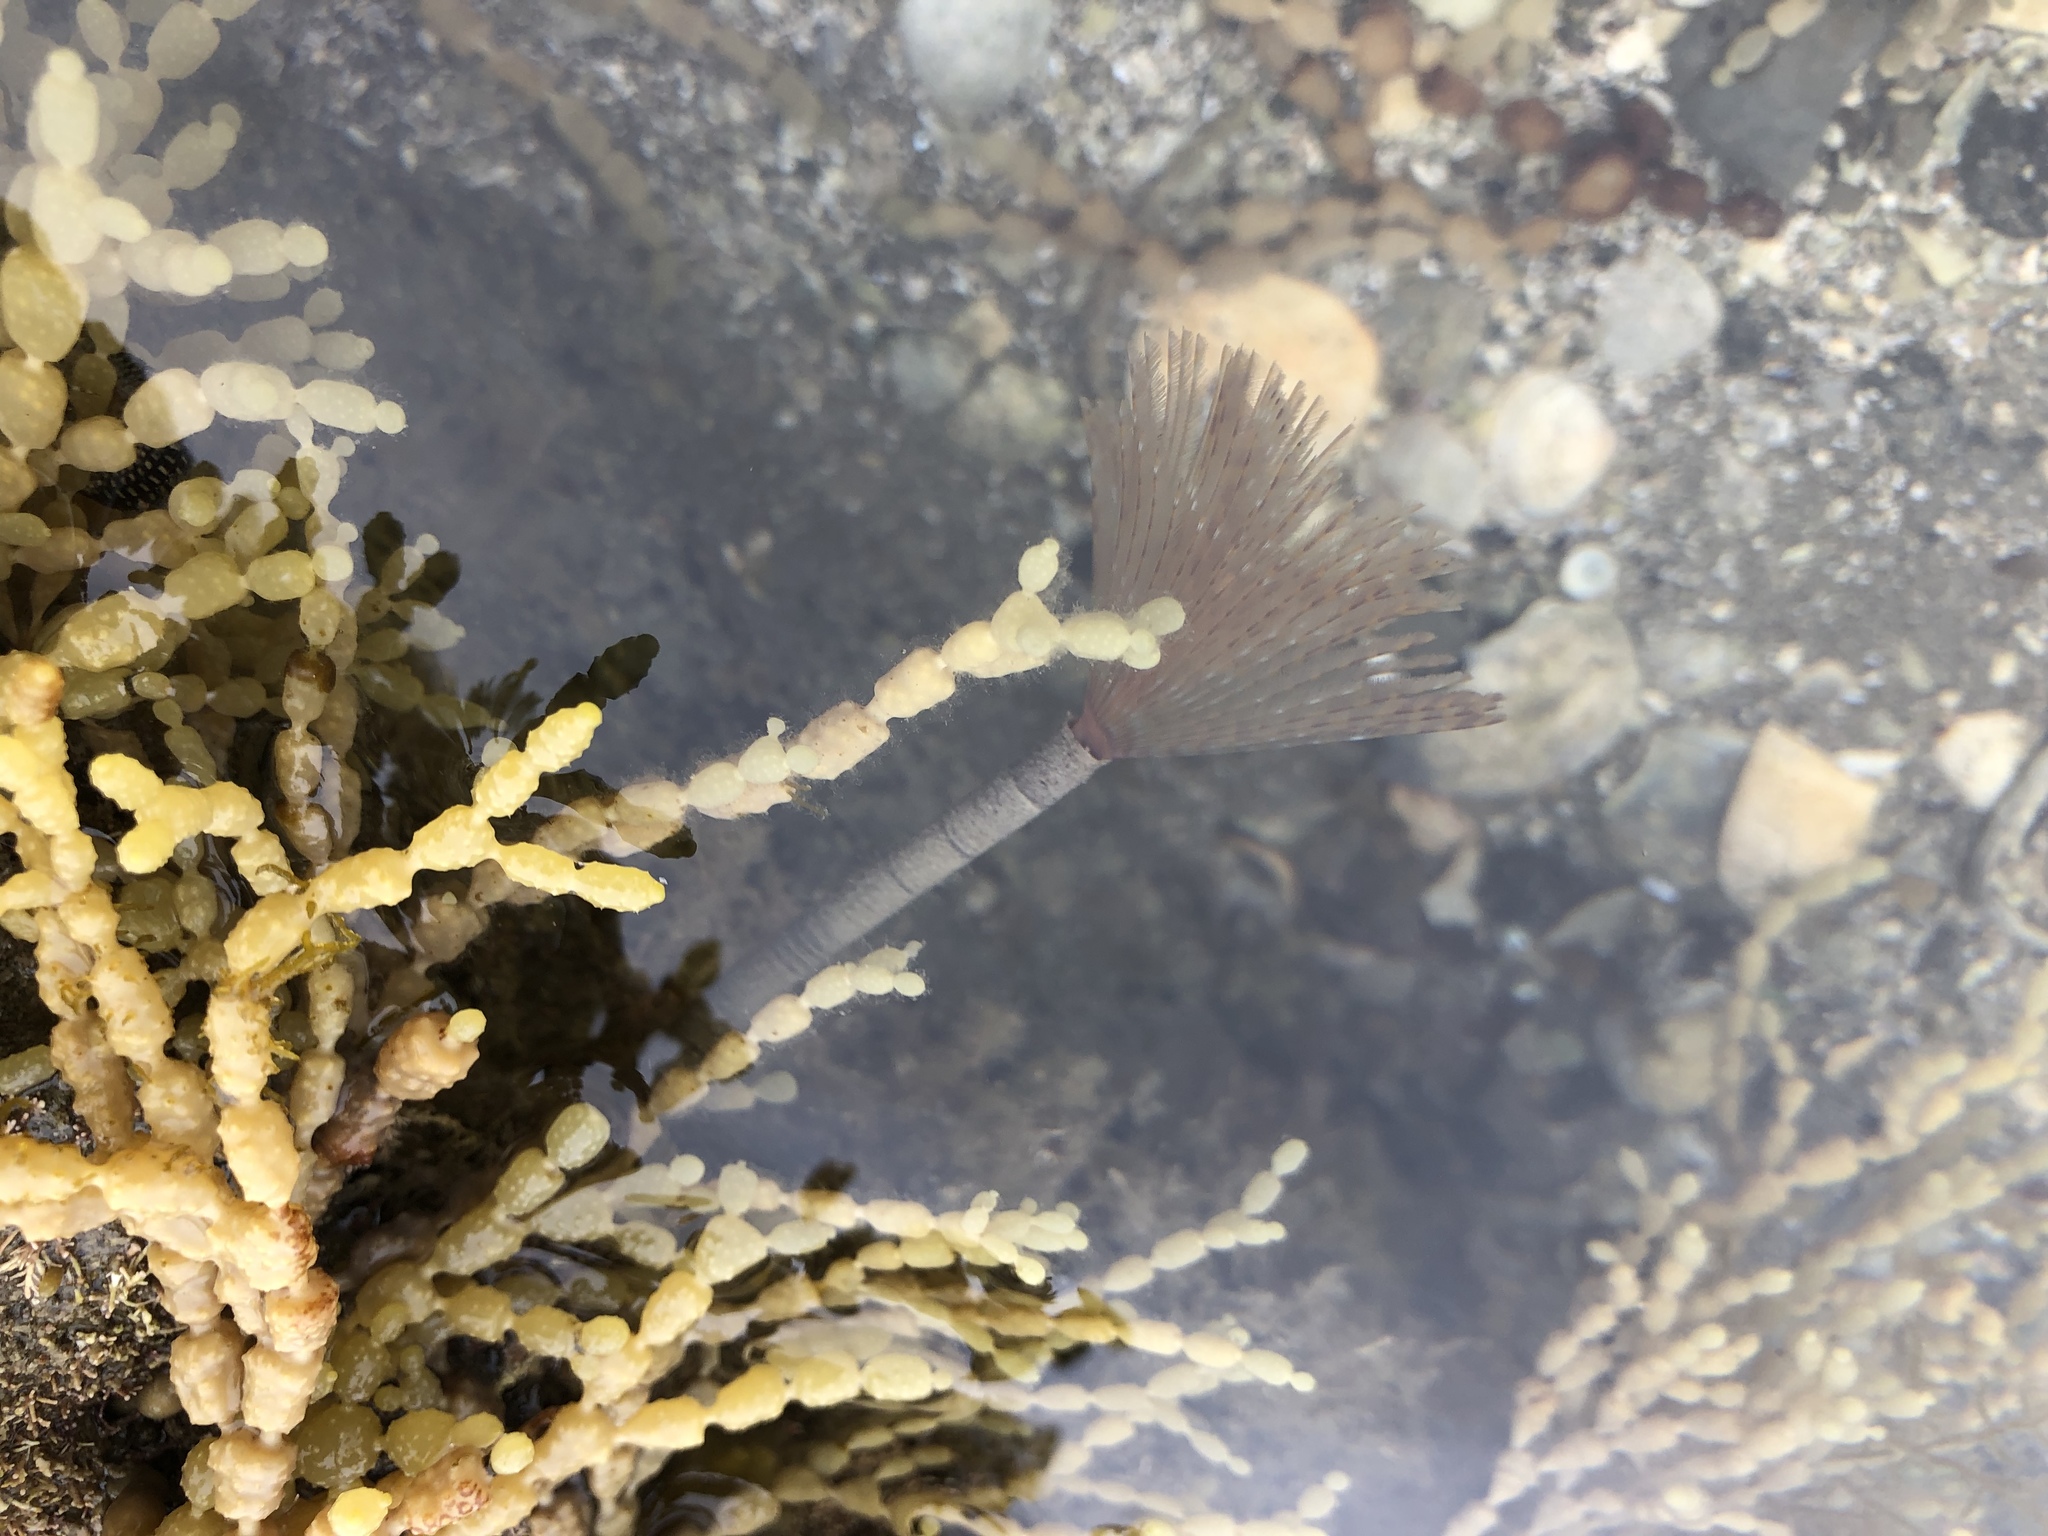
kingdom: Animalia
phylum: Annelida
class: Polychaeta
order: Sabellida
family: Sabellidae
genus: Sabella
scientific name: Sabella spallanzanii
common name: Feather duster worm
